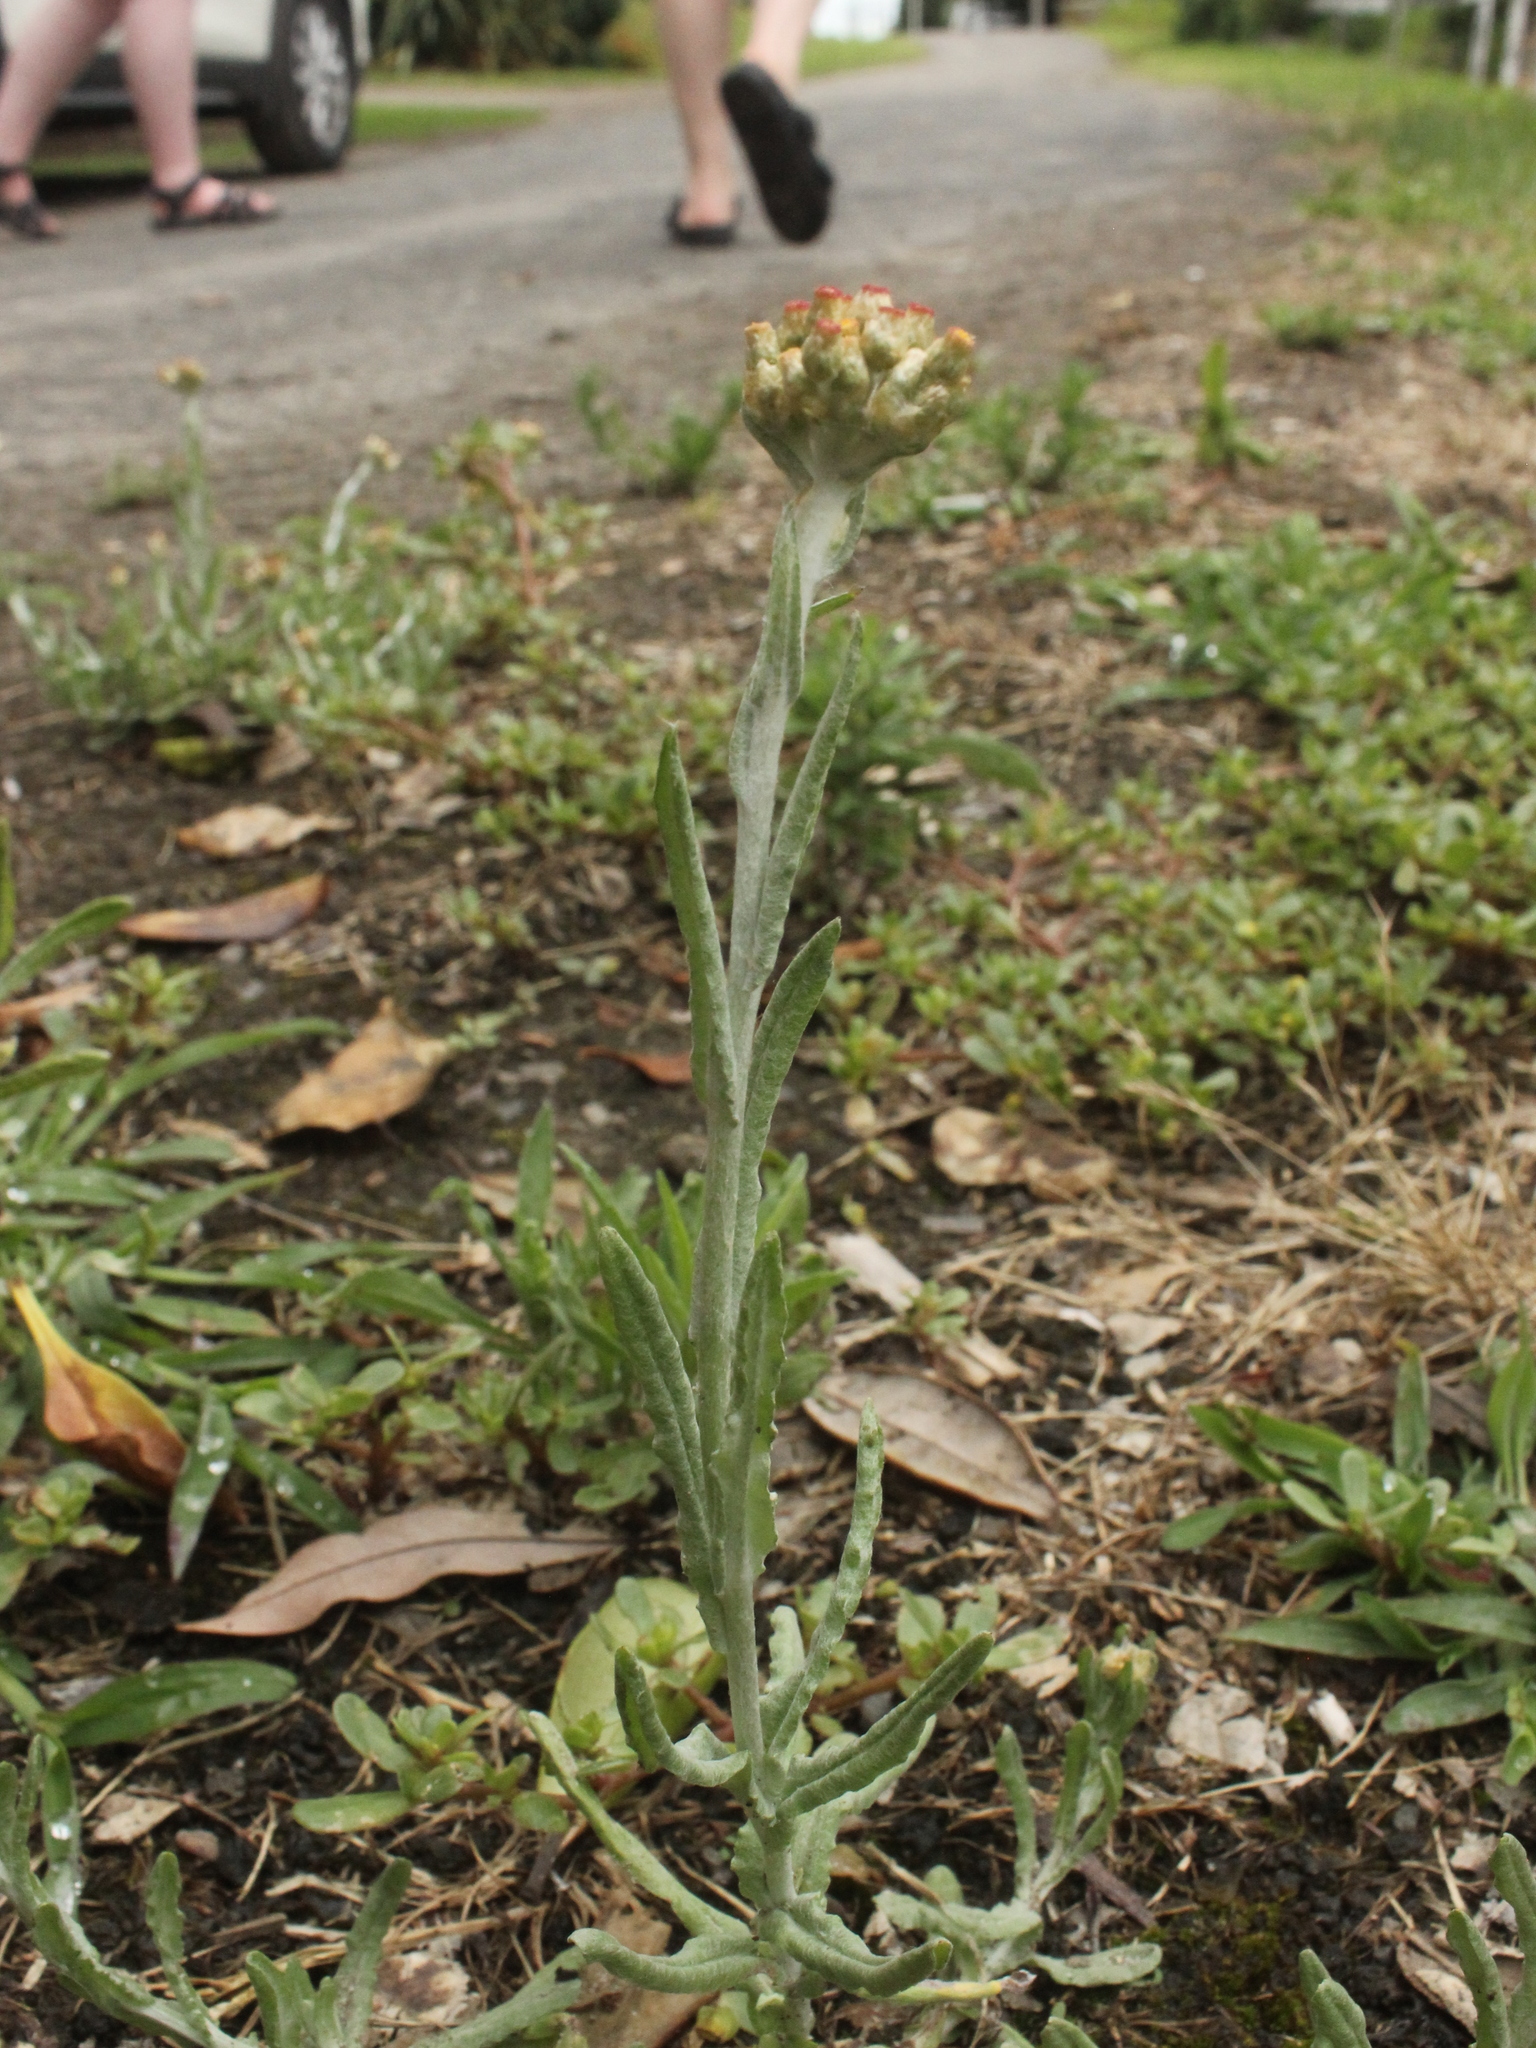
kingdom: Plantae
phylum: Tracheophyta
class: Magnoliopsida
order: Asterales
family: Asteraceae
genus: Helichrysum
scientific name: Helichrysum luteoalbum
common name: Daisy
